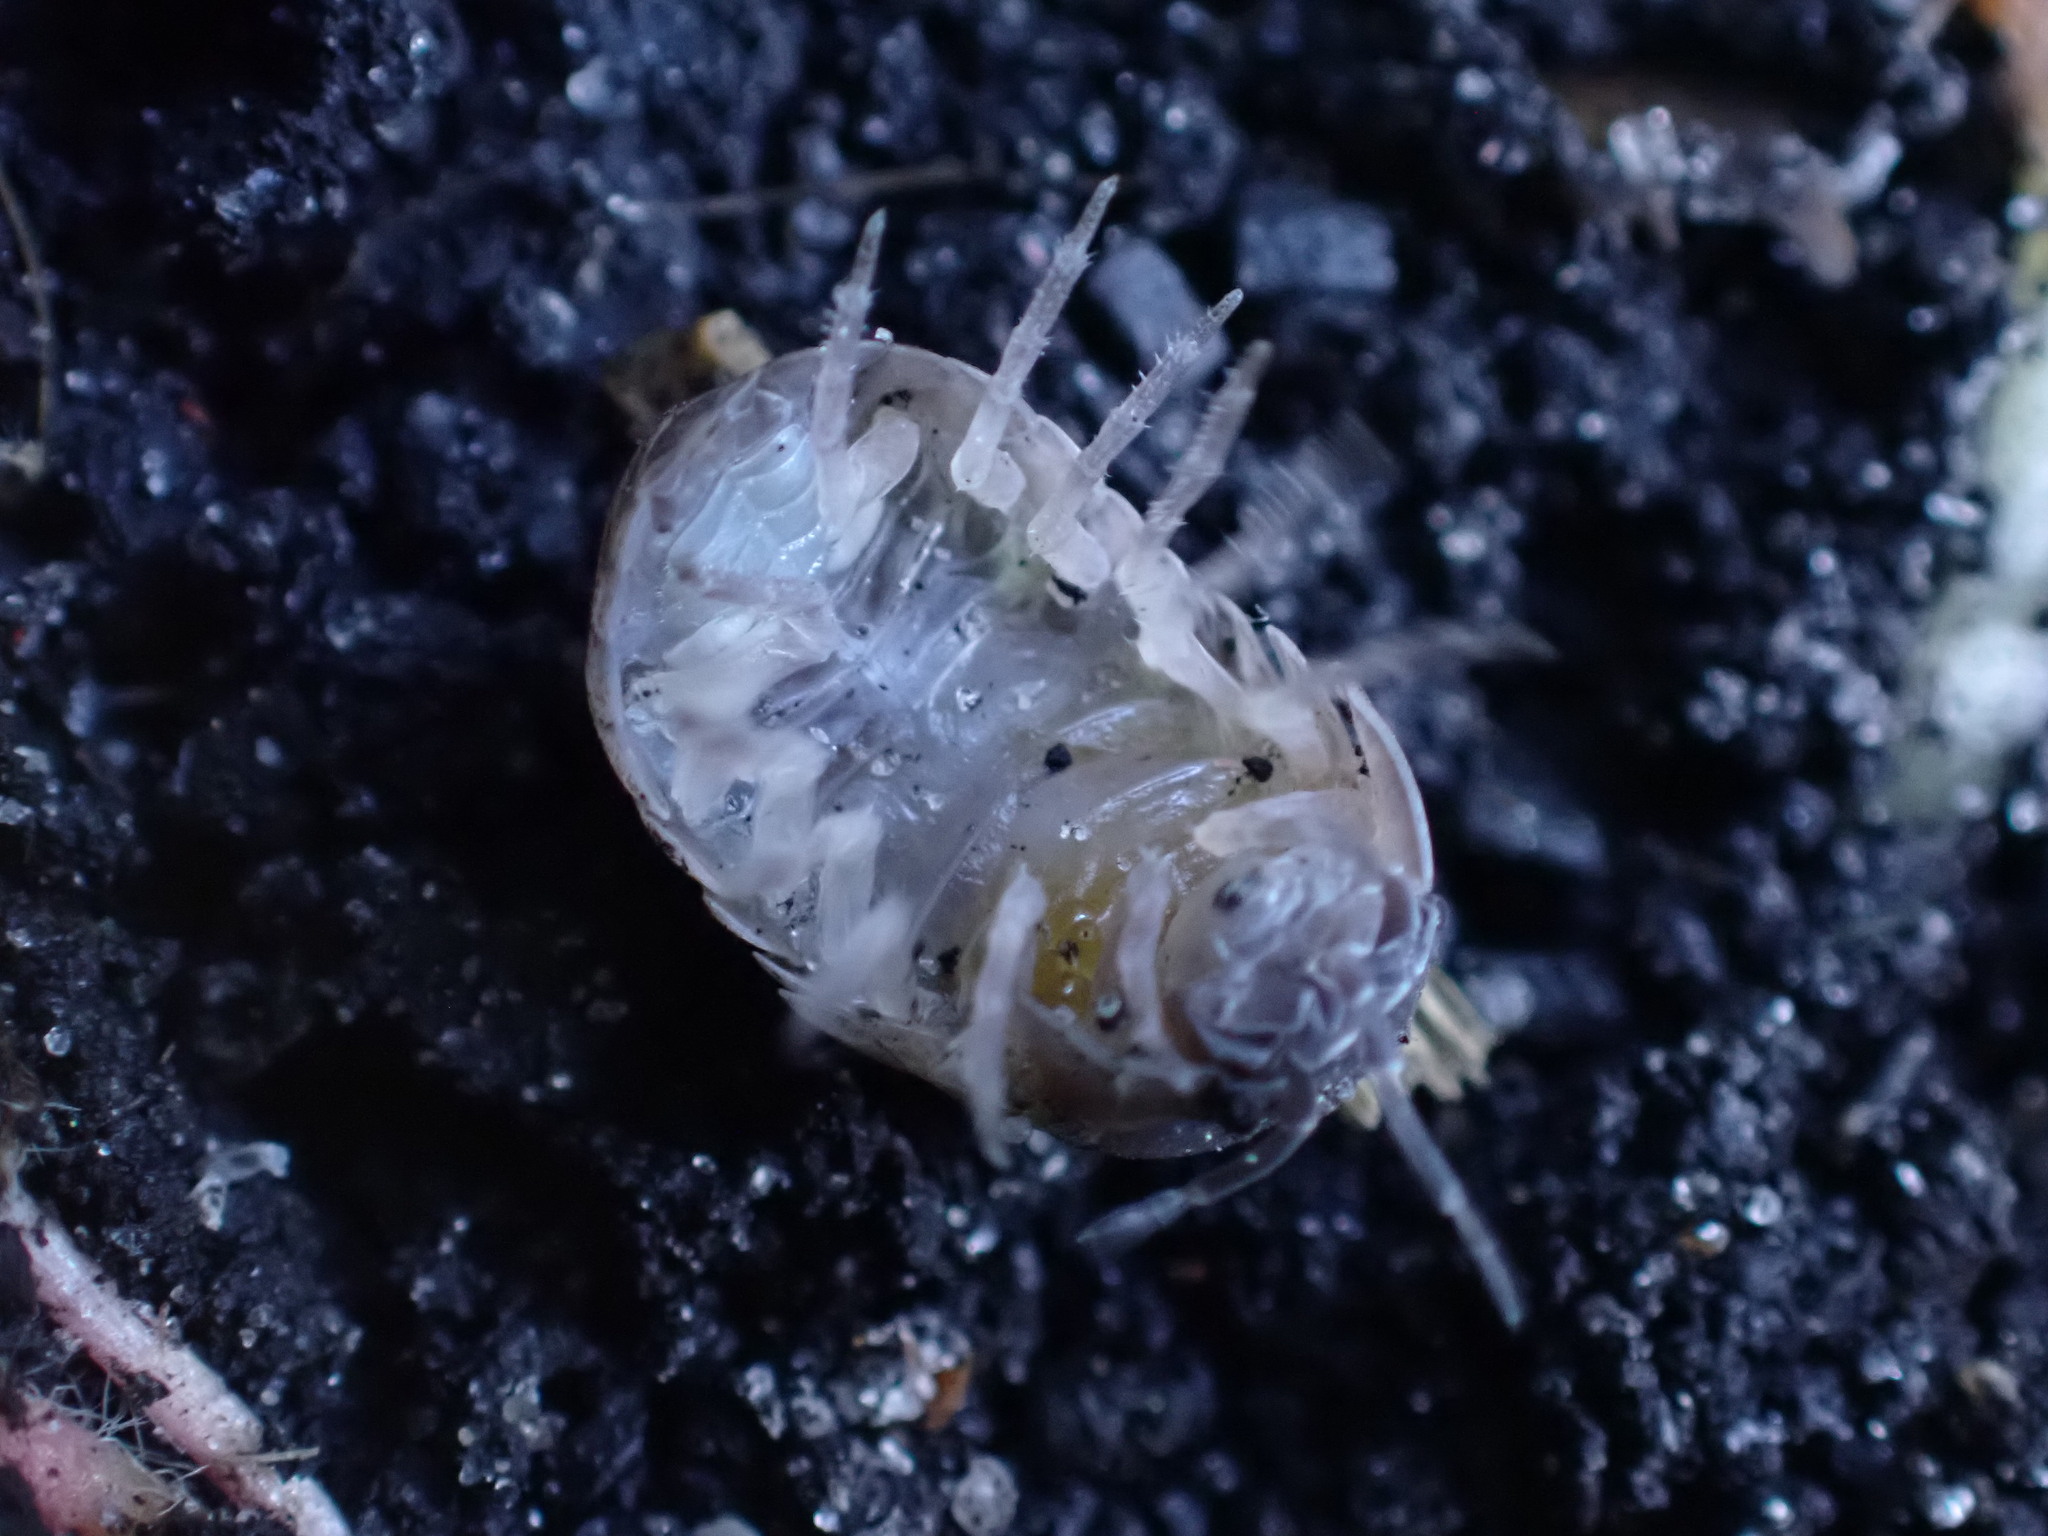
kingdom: Animalia
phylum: Arthropoda
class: Malacostraca
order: Isopoda
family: Armadillidiidae
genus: Armadillidium
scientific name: Armadillidium vulgare
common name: Common pill woodlouse
